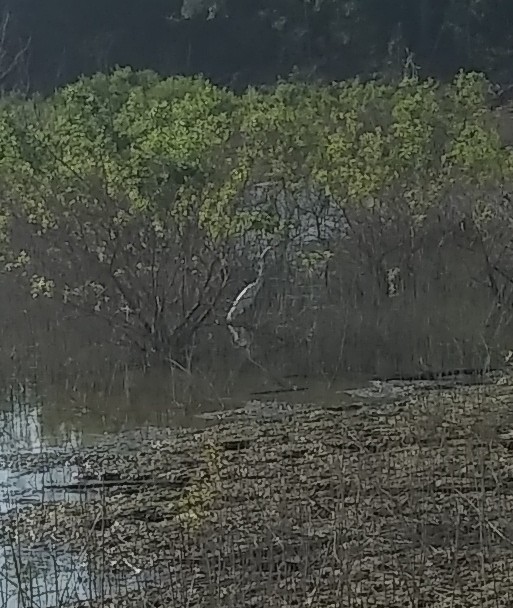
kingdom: Animalia
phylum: Chordata
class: Aves
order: Pelecaniformes
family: Ardeidae
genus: Ardea
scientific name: Ardea alba
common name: Great egret
